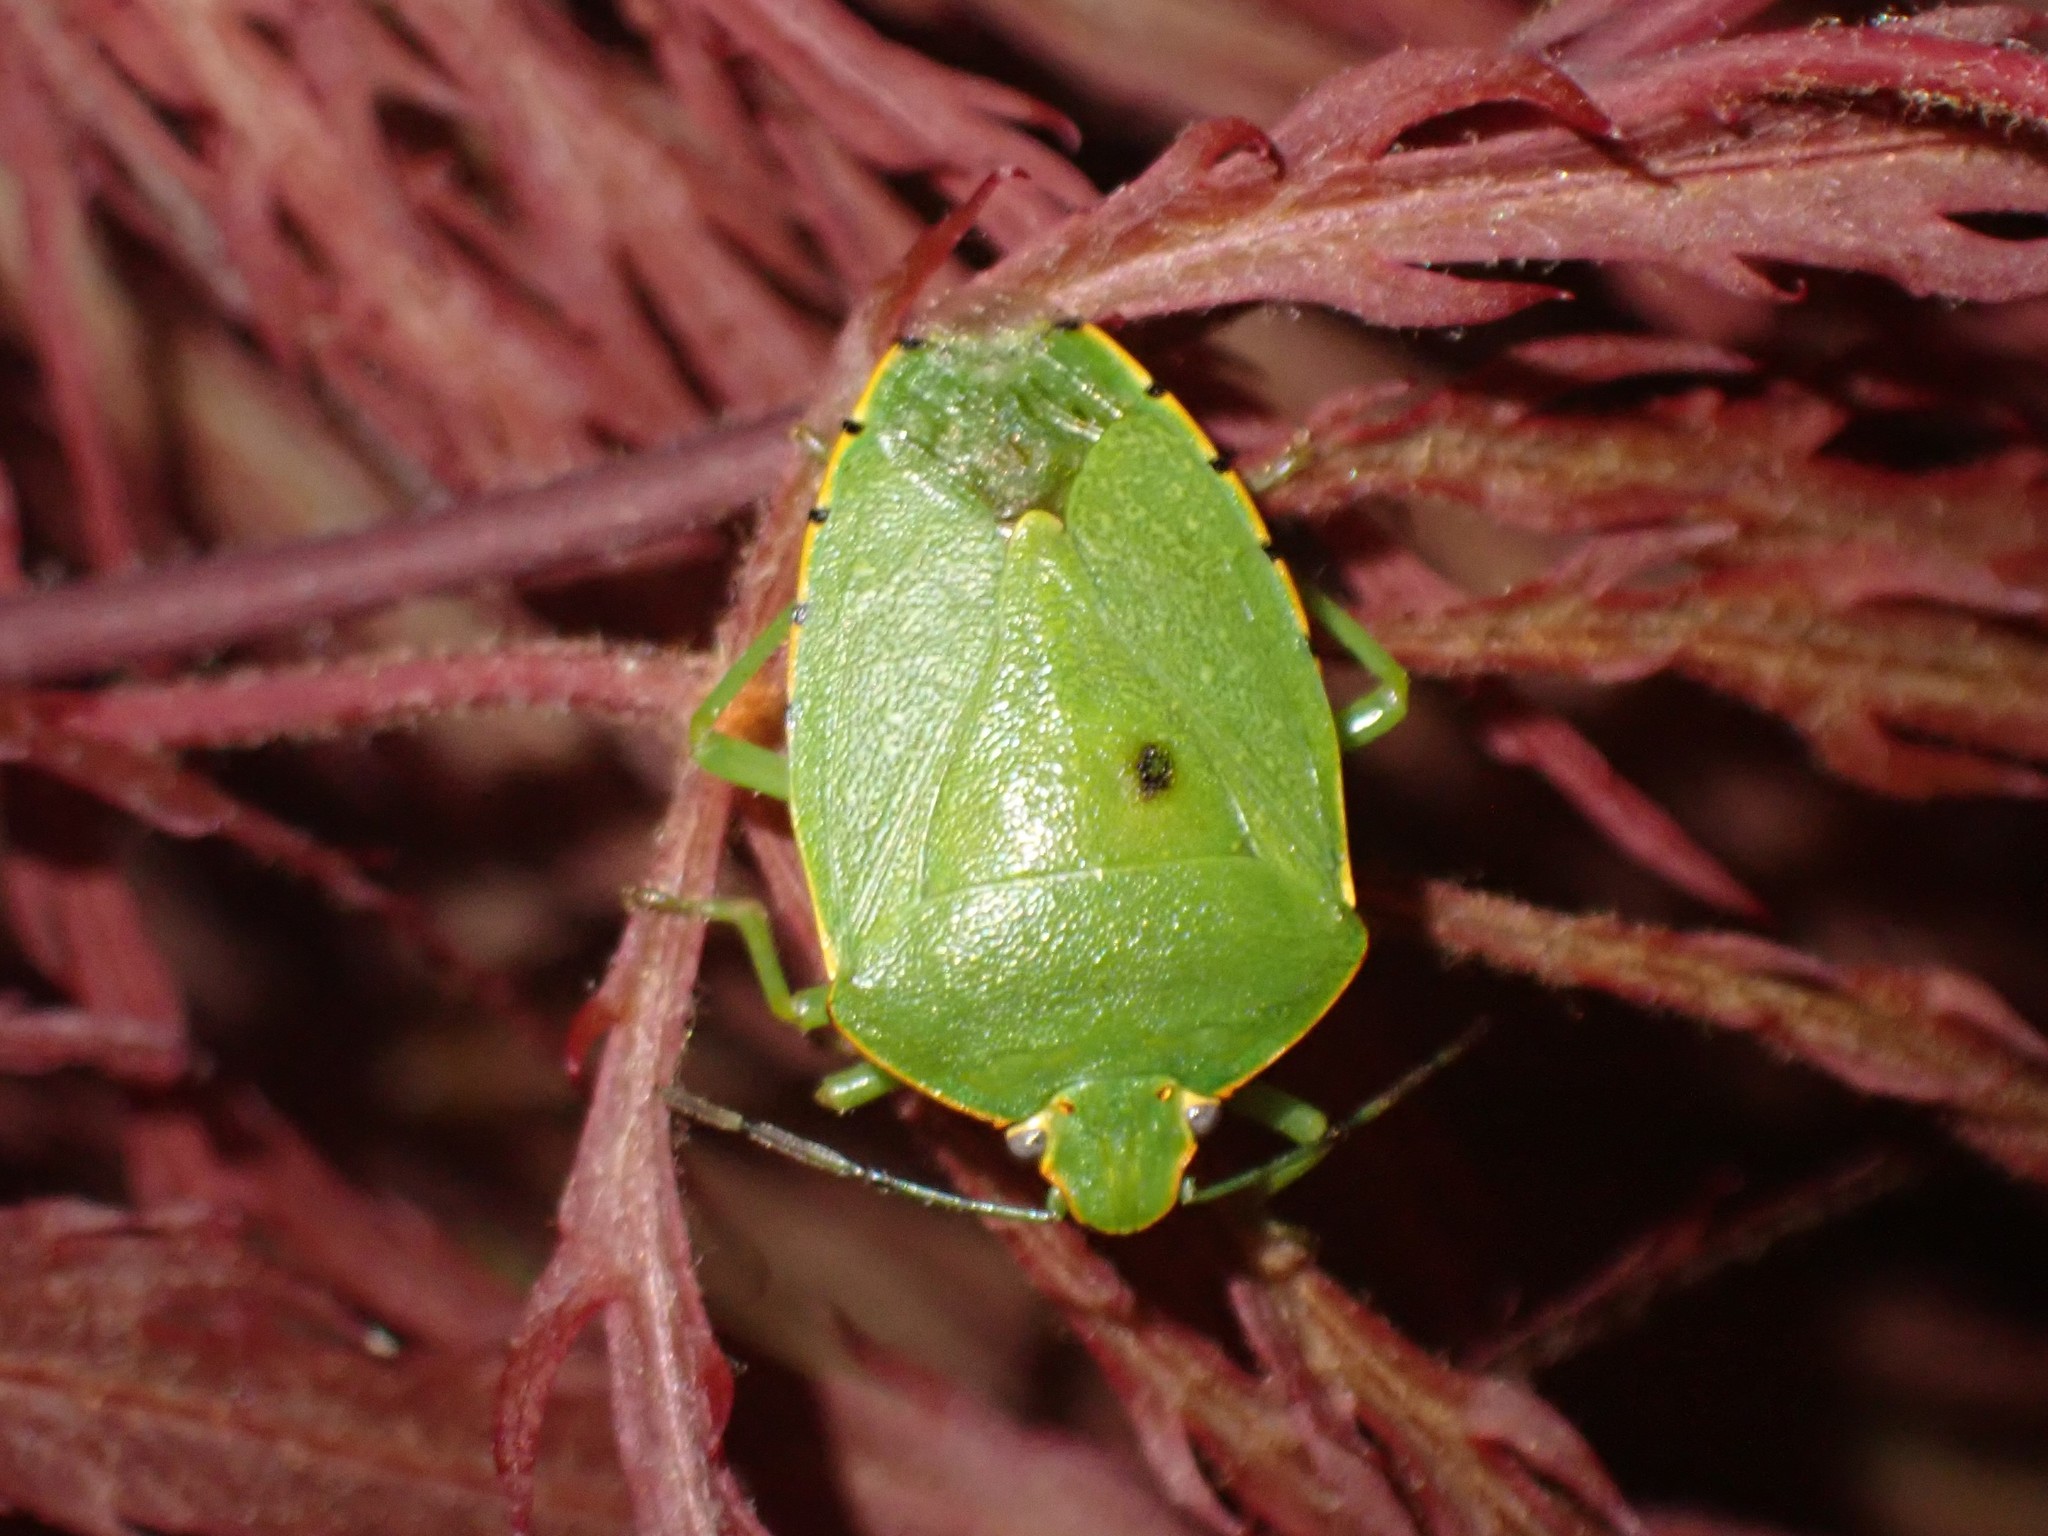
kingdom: Animalia
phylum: Arthropoda
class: Insecta
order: Hemiptera
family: Pentatomidae
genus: Chinavia
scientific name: Chinavia hilaris
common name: Green stink bug
